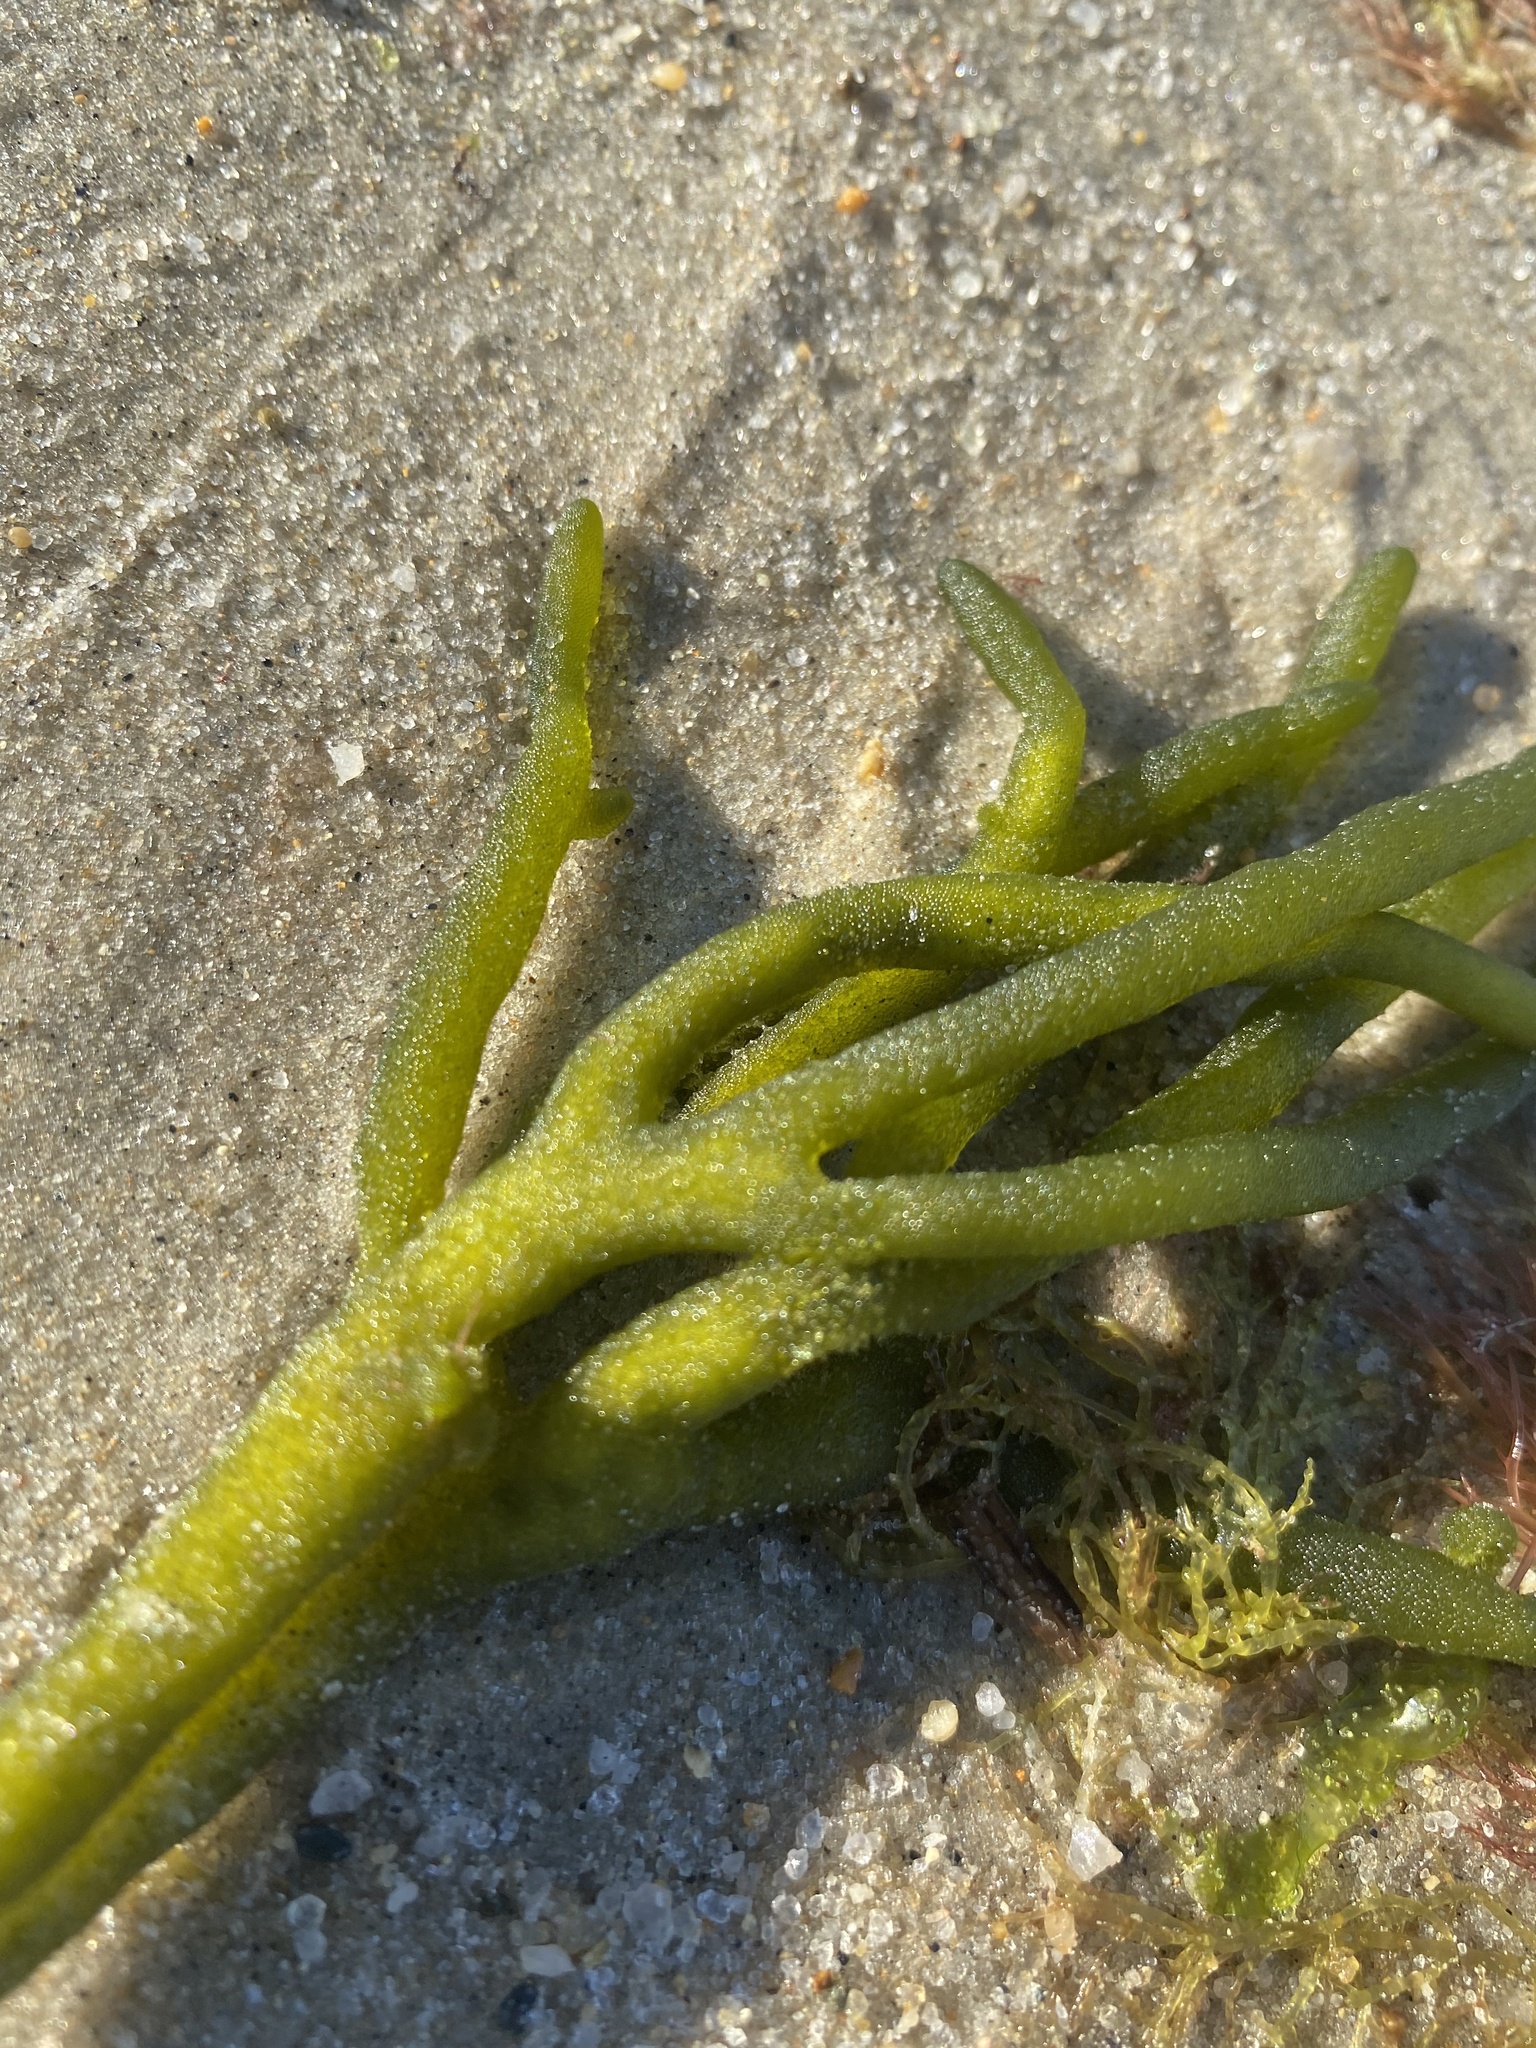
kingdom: Plantae
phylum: Chlorophyta
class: Ulvophyceae
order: Bryopsidales
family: Codiaceae
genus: Codium
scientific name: Codium fragile
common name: Dead man's fingers
